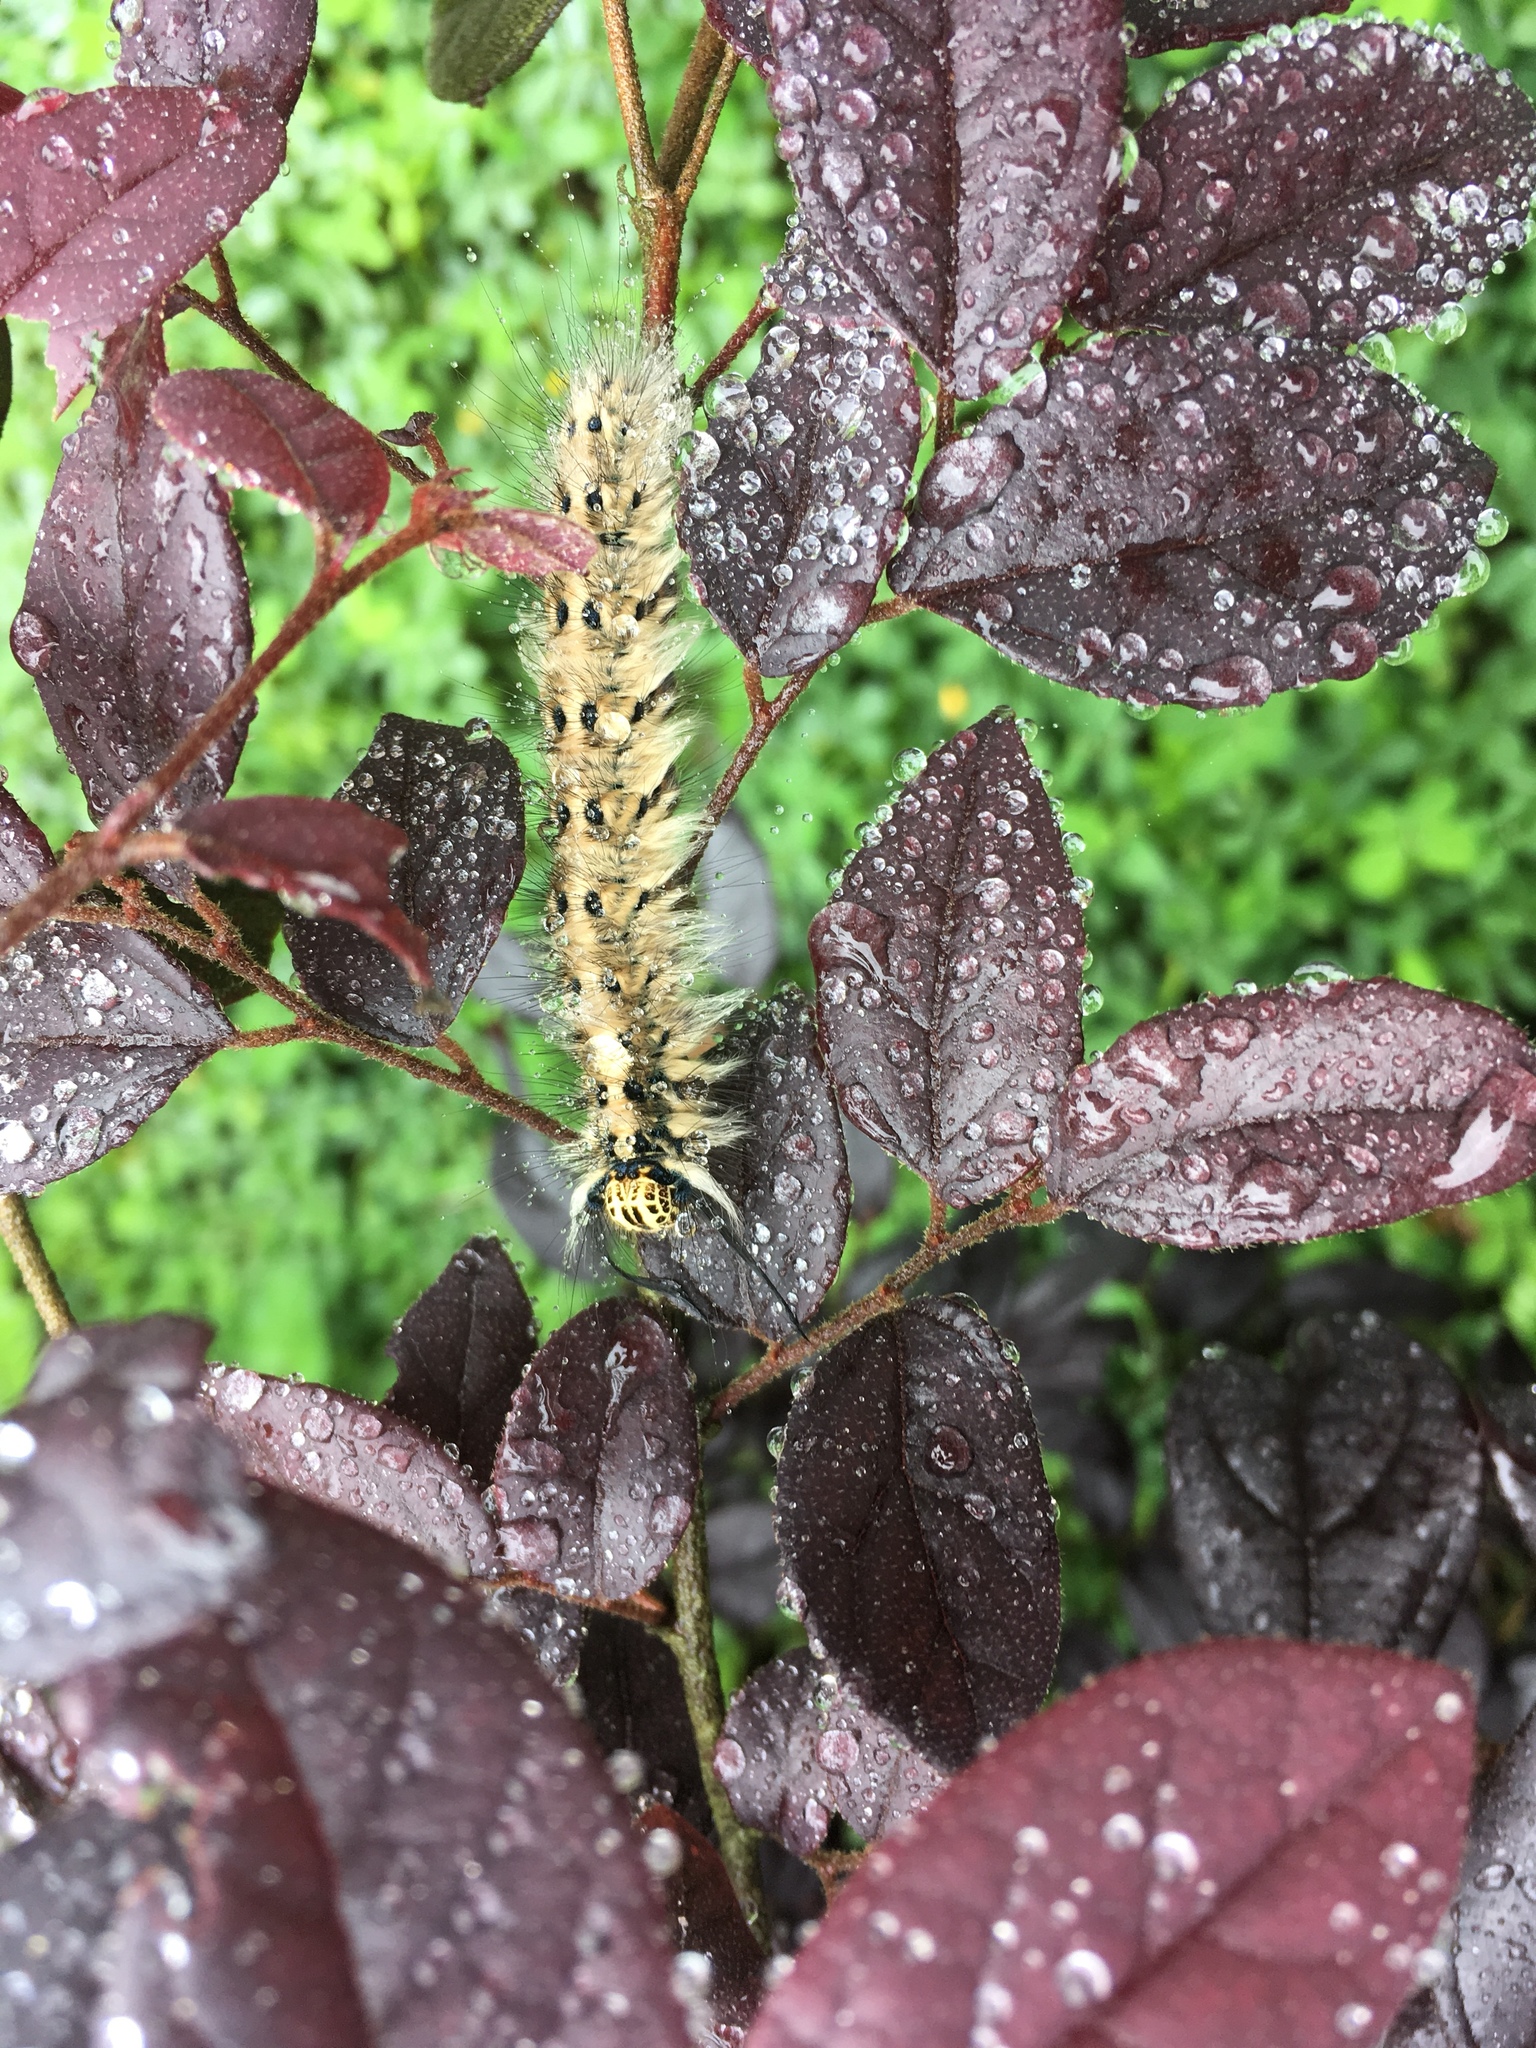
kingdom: Animalia
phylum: Arthropoda
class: Insecta
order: Lepidoptera
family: Lasiocampidae
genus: Trabala
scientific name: Trabala vishnou
